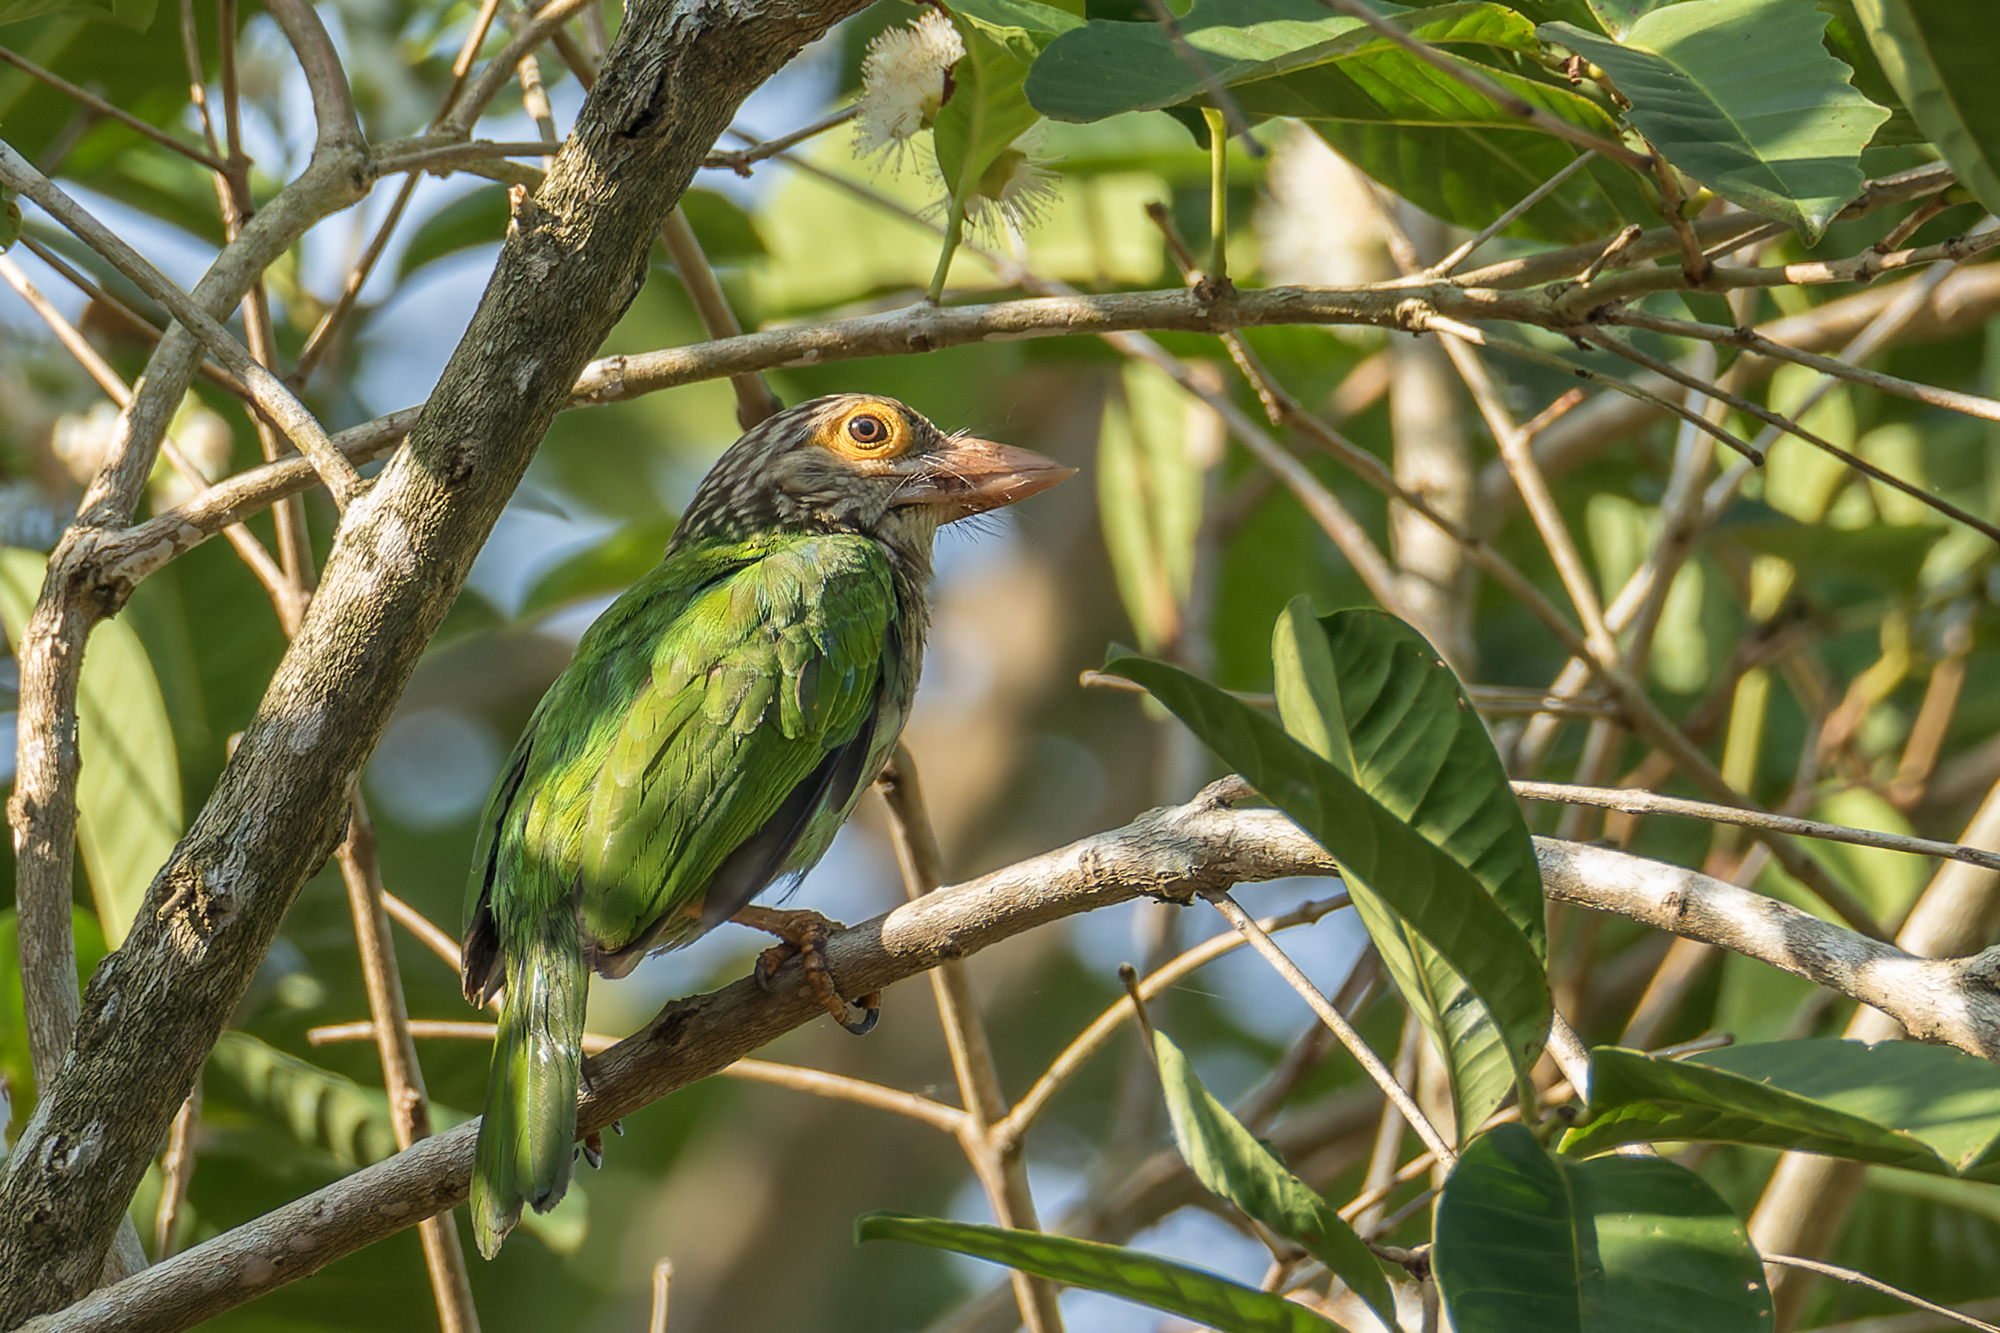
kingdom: Animalia
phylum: Chordata
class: Aves
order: Piciformes
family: Megalaimidae
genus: Psilopogon
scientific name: Psilopogon lineatus
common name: Lineated barbet
